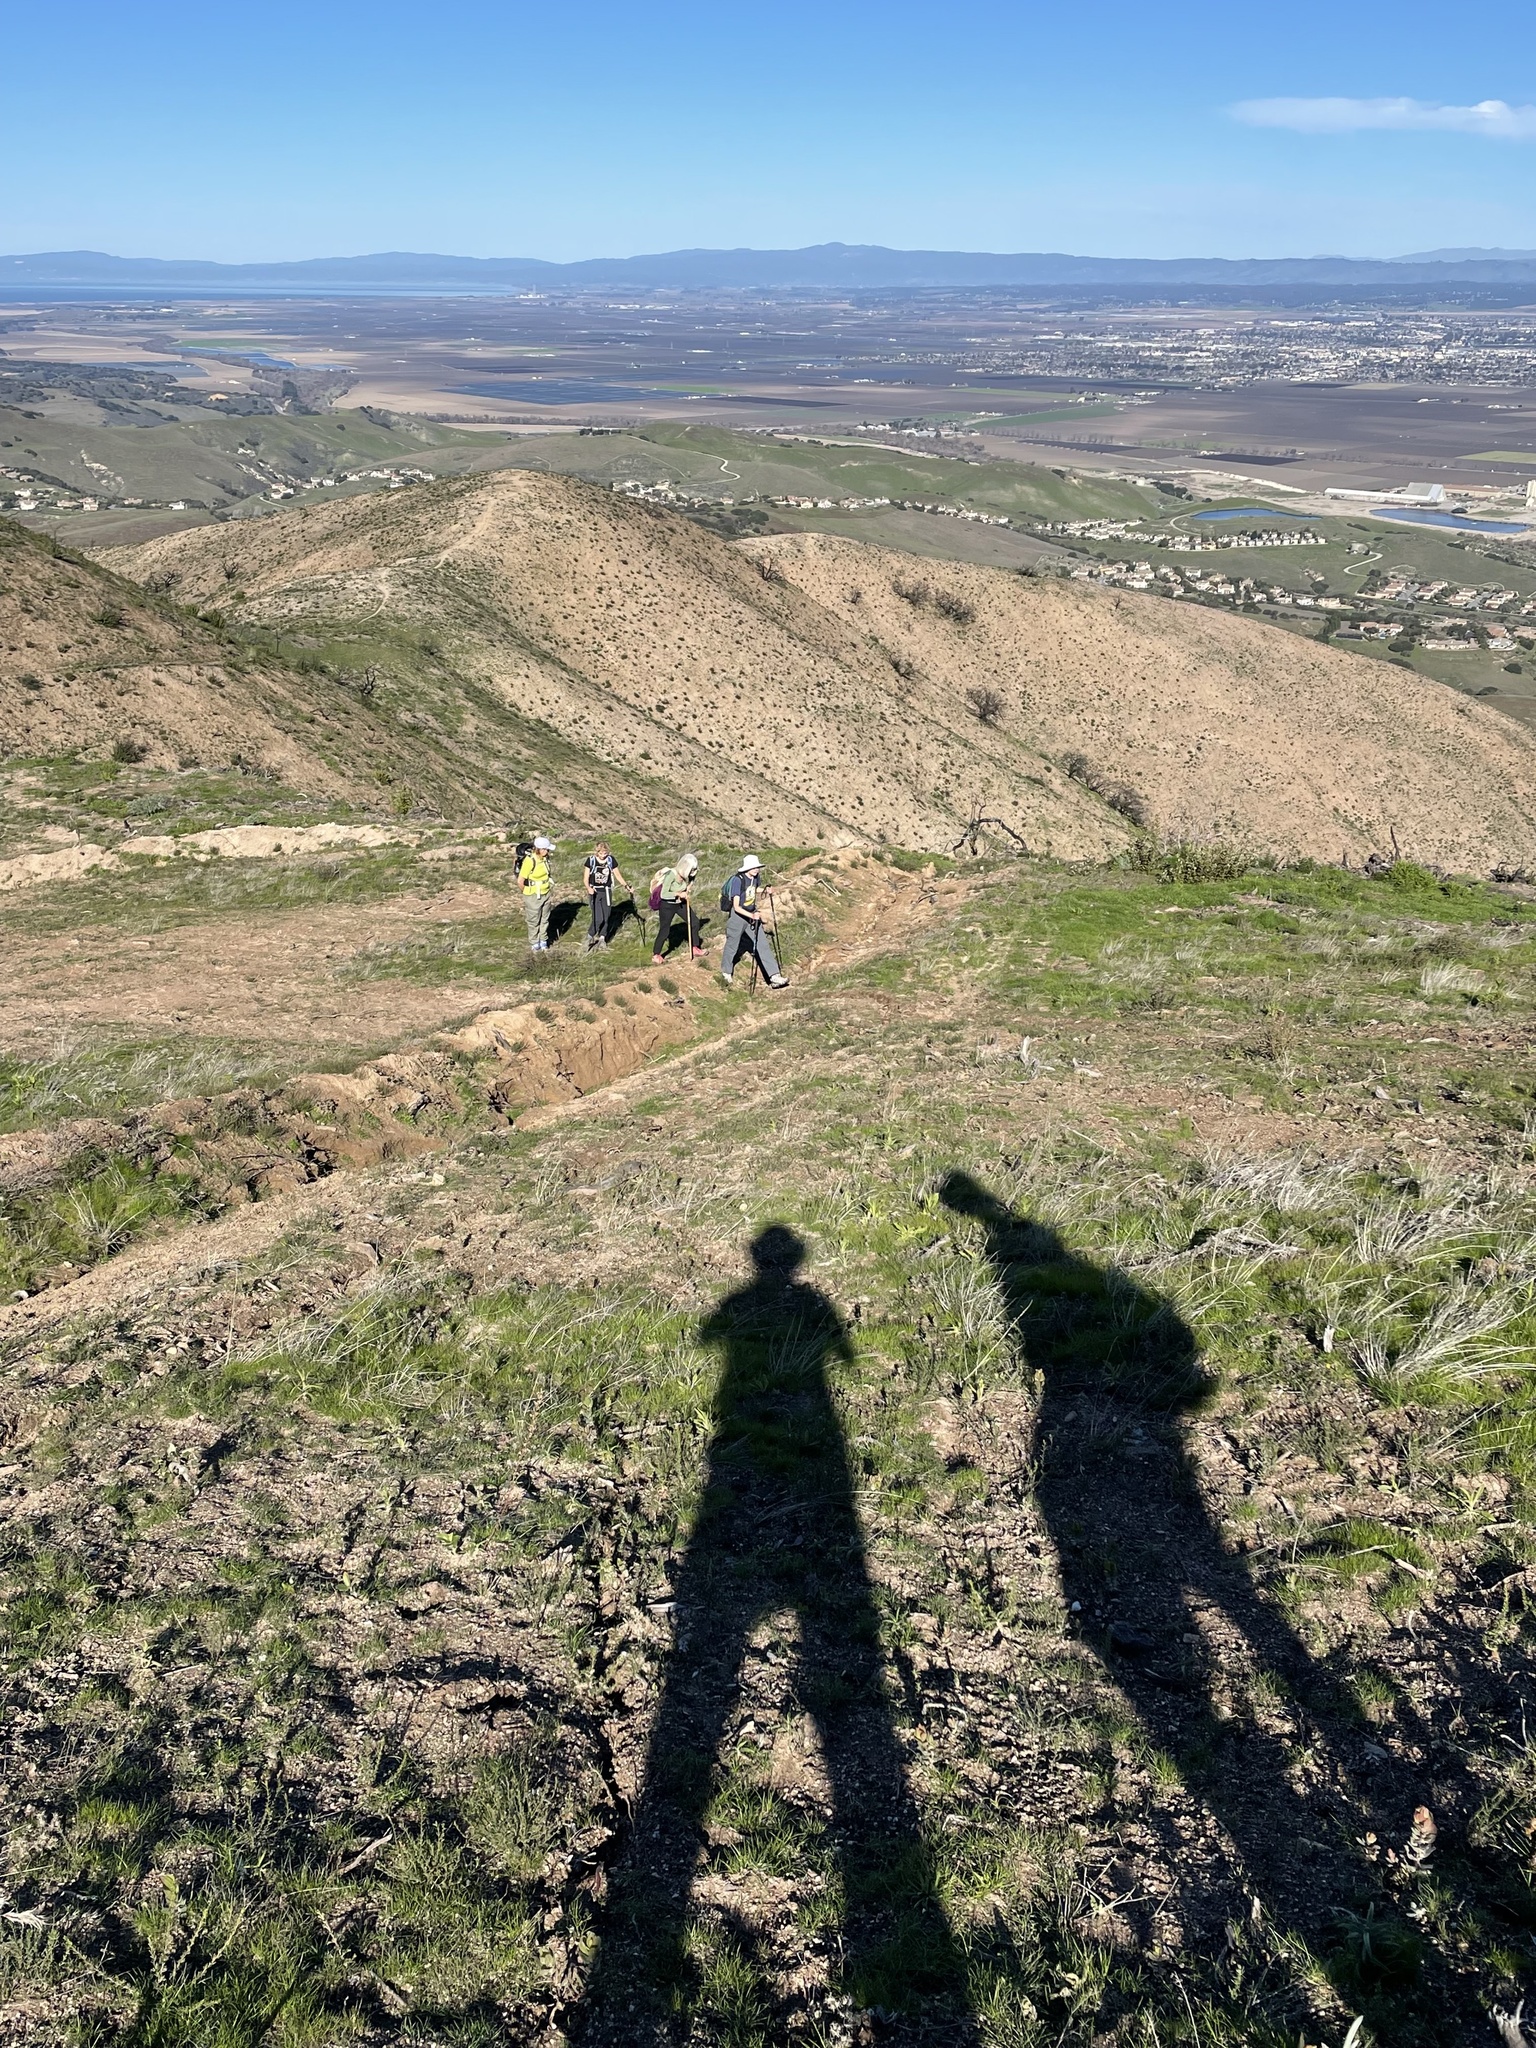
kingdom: Plantae
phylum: Tracheophyta
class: Magnoliopsida
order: Lamiales
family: Lamiaceae
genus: Salvia
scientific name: Salvia mellifera
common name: Black sage
